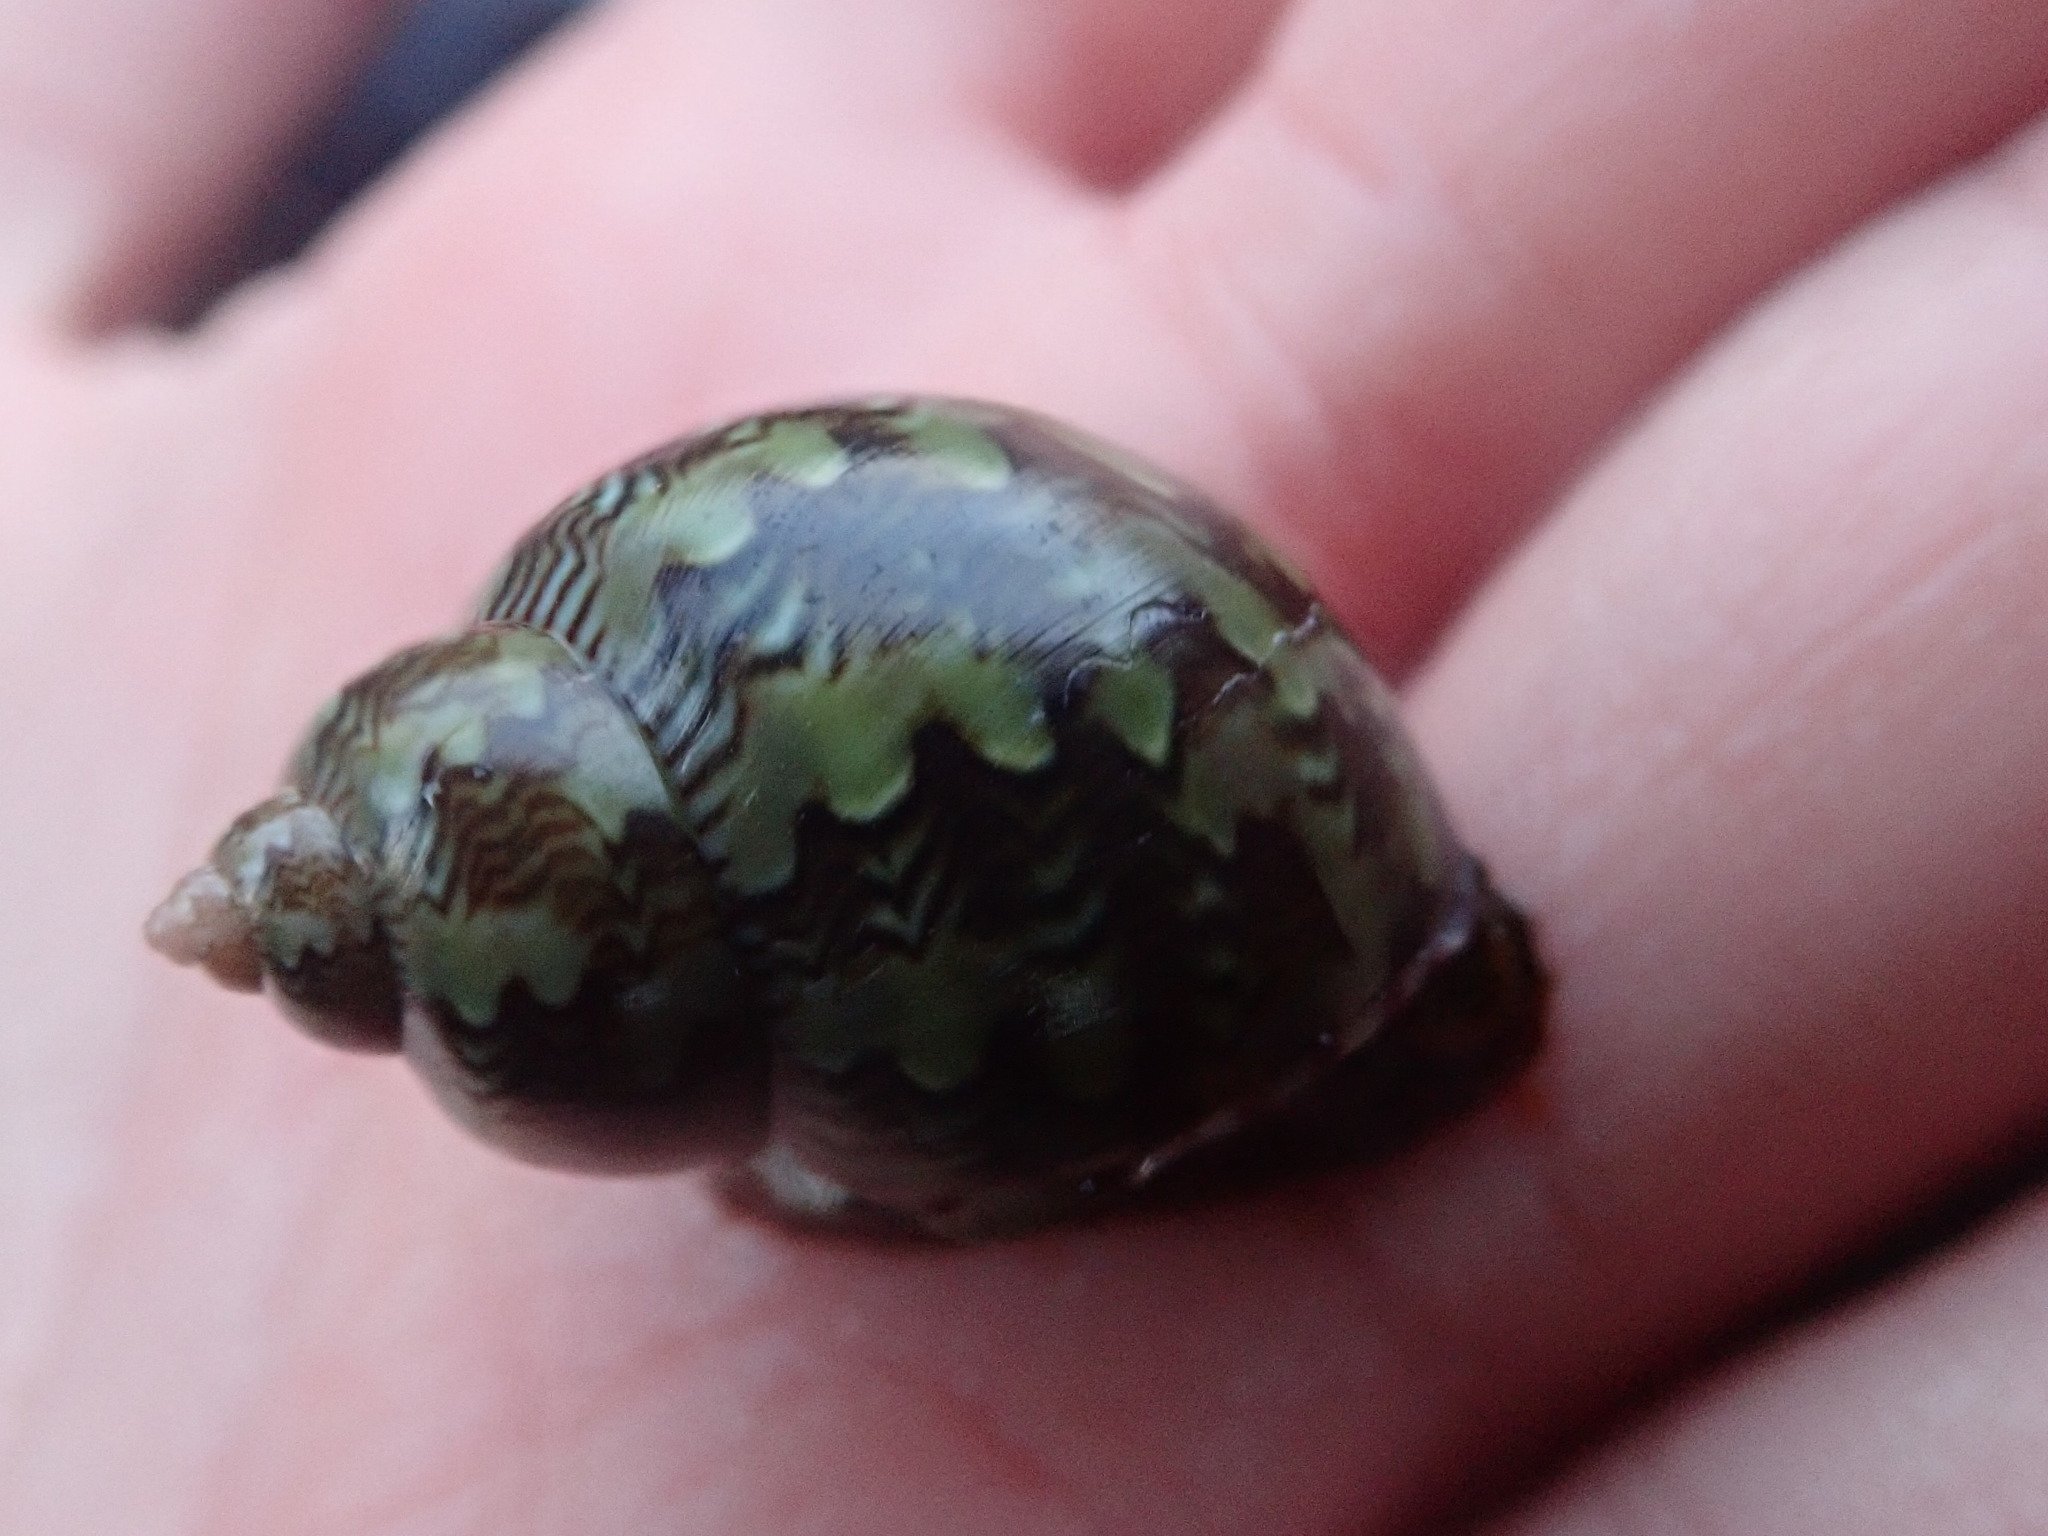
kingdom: Animalia
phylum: Mollusca
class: Gastropoda
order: Trochida
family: Phasianellidae
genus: Phasianella
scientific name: Phasianella ventricosa
